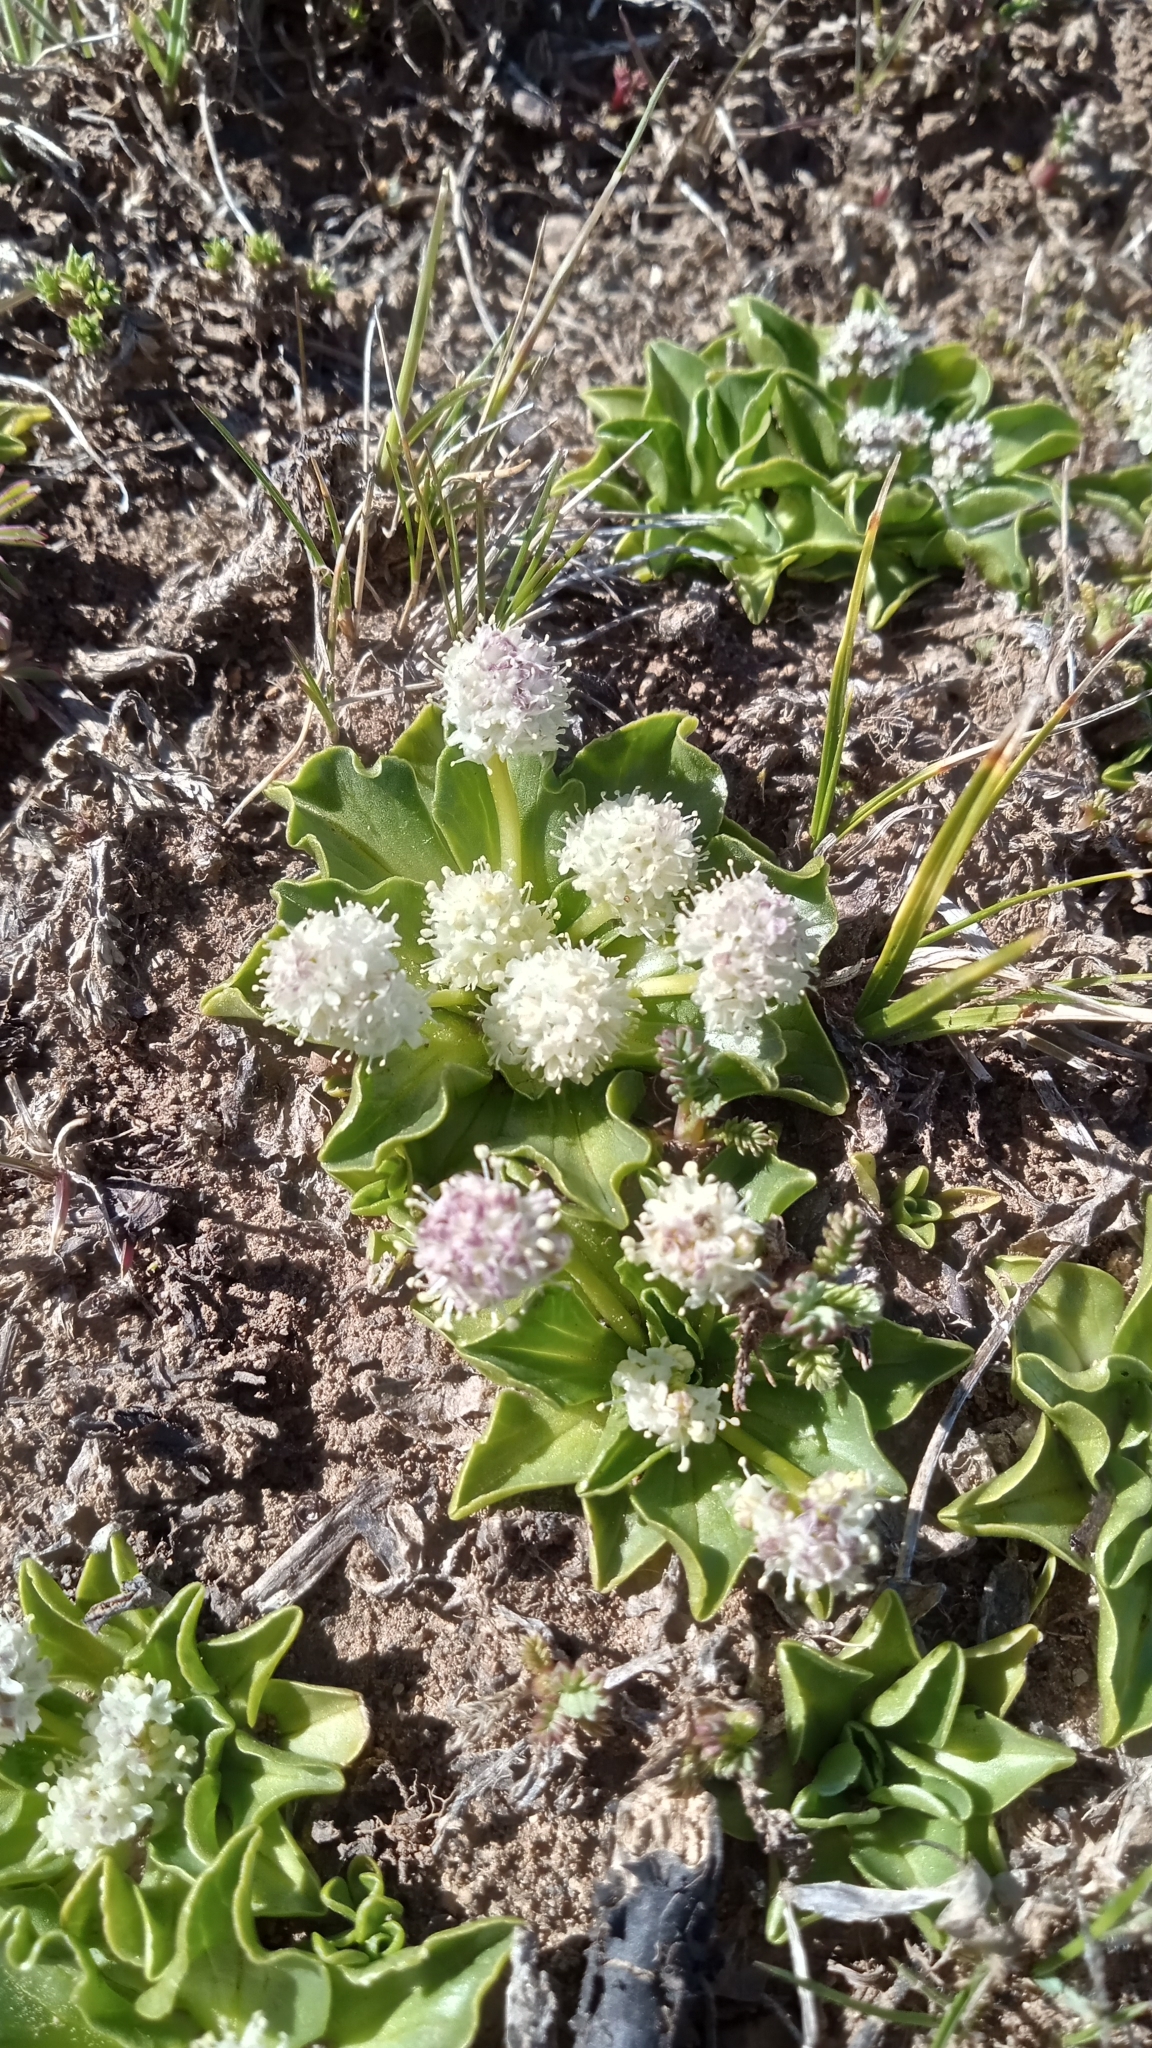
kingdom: Plantae
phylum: Tracheophyta
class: Magnoliopsida
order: Dipsacales
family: Caprifoliaceae
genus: Valeriana
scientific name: Valeriana macrorhiza
